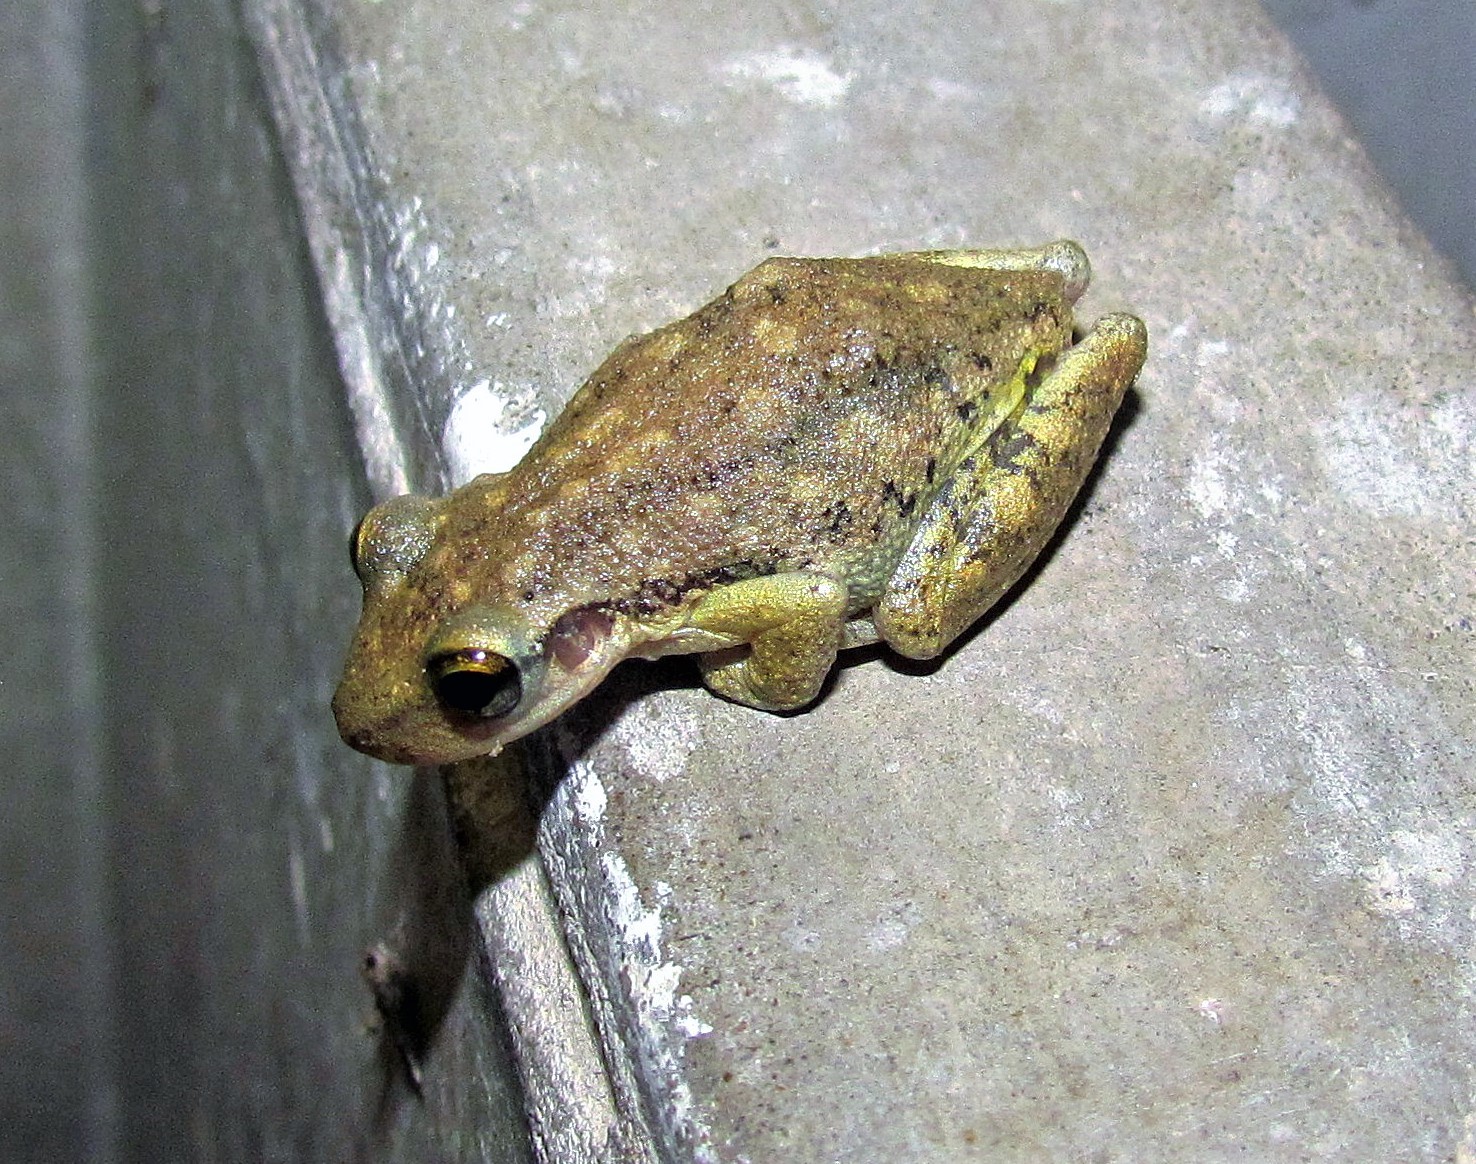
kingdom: Animalia
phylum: Chordata
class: Amphibia
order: Anura
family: Hylidae
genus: Scinax
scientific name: Scinax nasicus
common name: Lesser snouted treefrog
